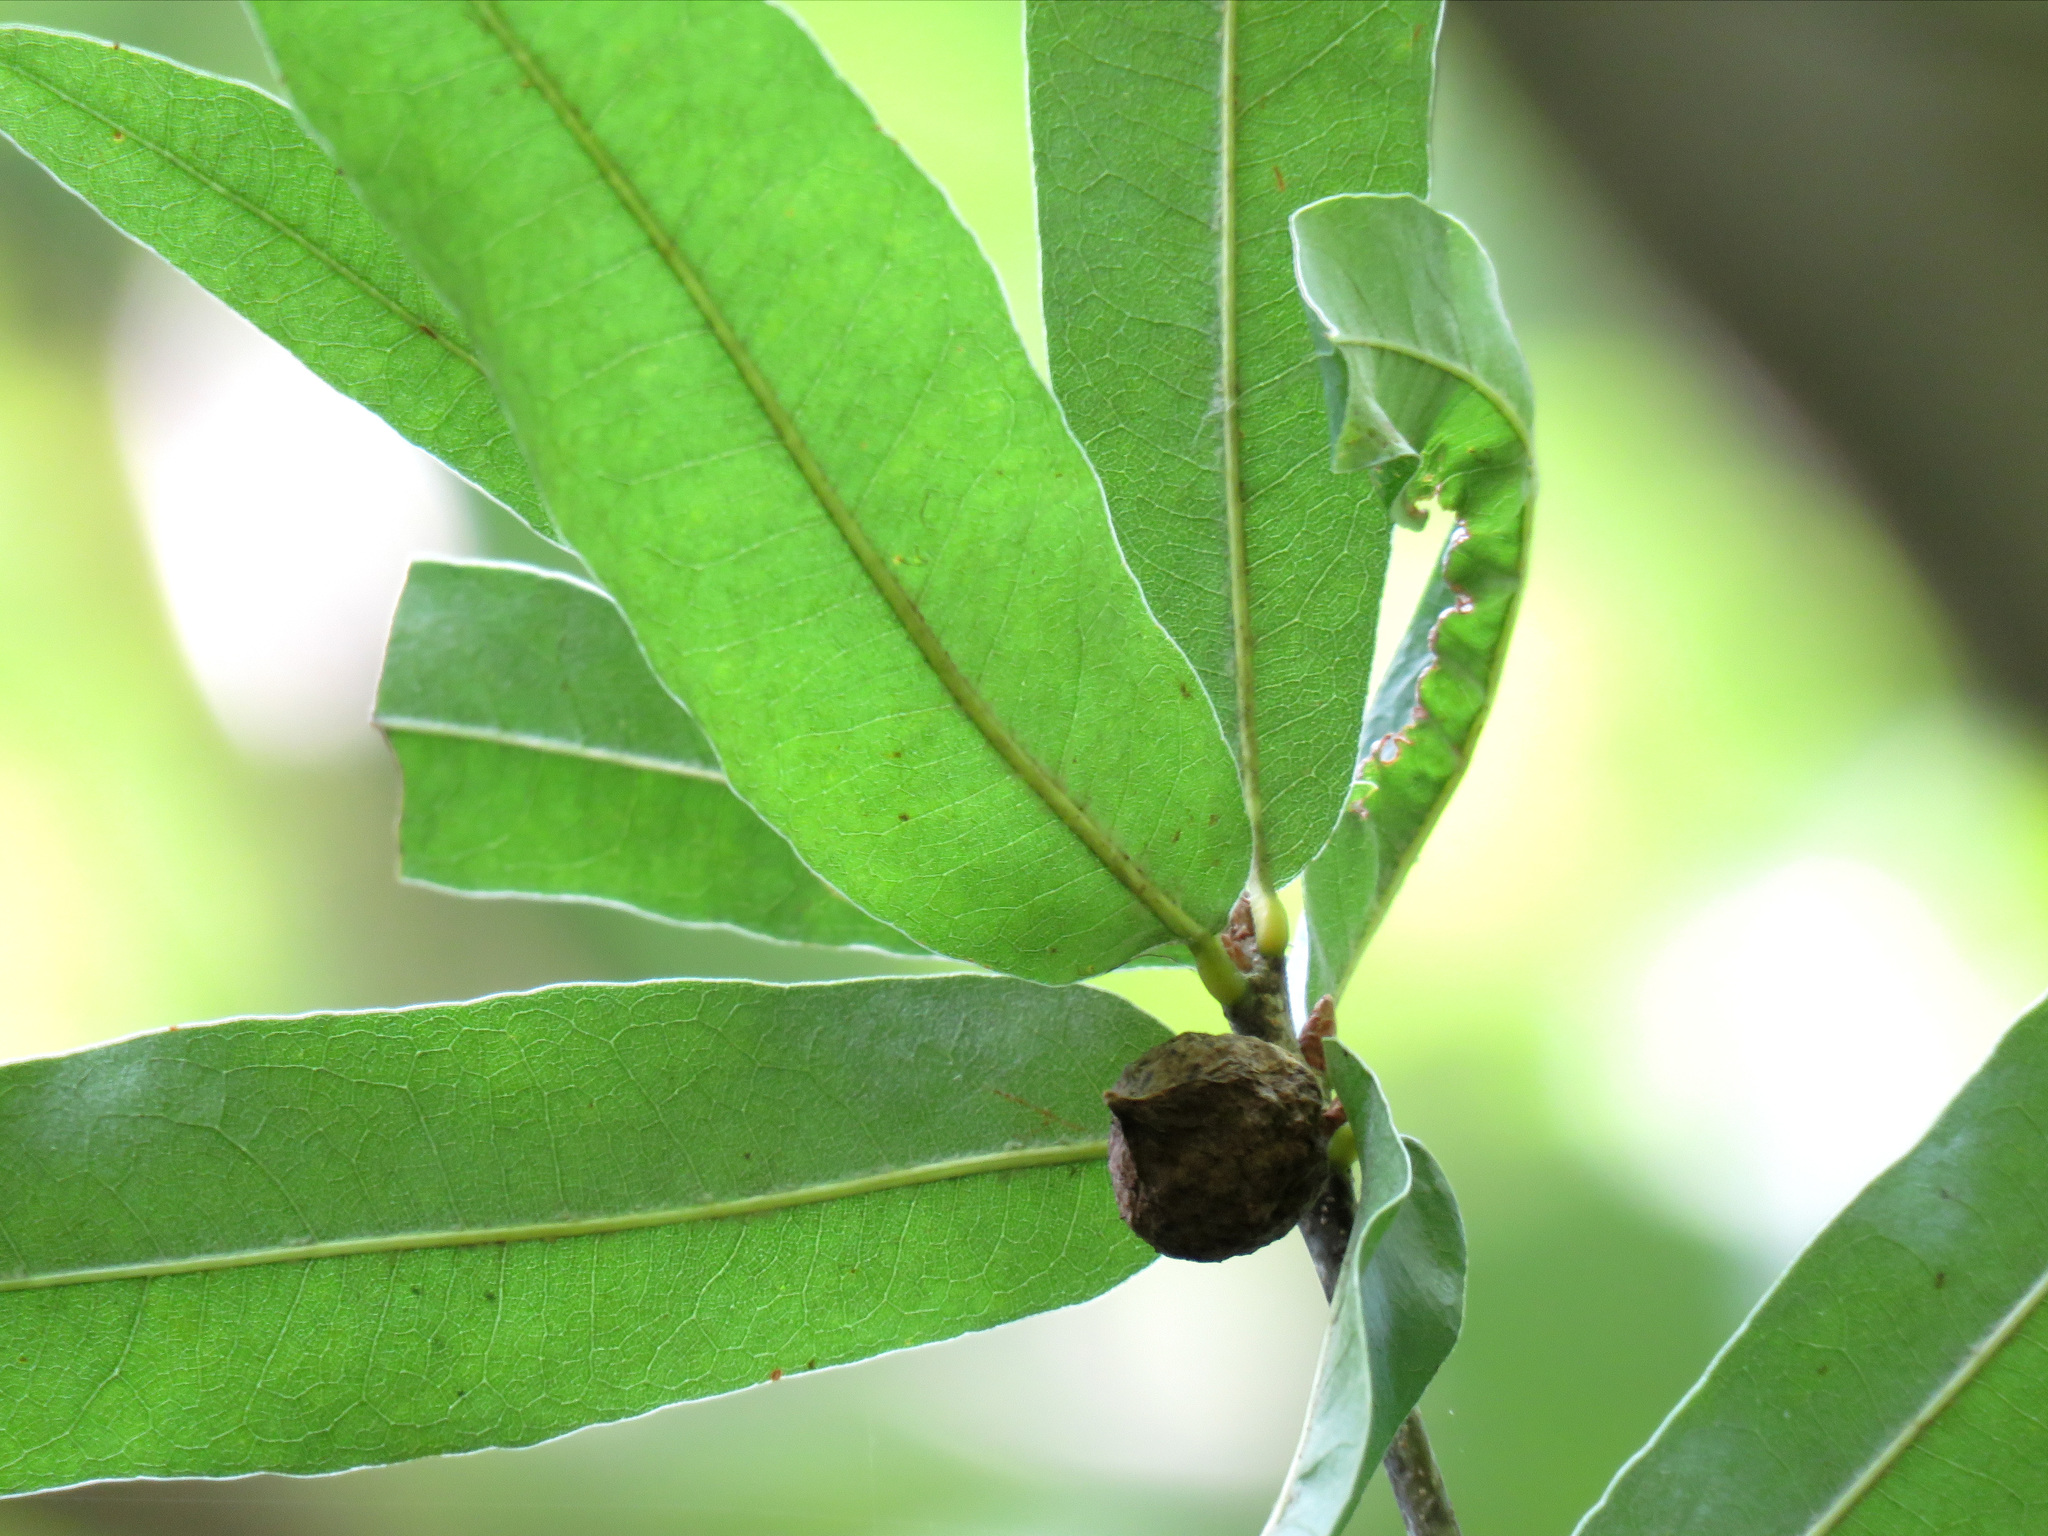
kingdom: Plantae
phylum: Tracheophyta
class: Magnoliopsida
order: Fagales
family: Fagaceae
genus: Quercus
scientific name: Quercus phellos
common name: Willow oak
